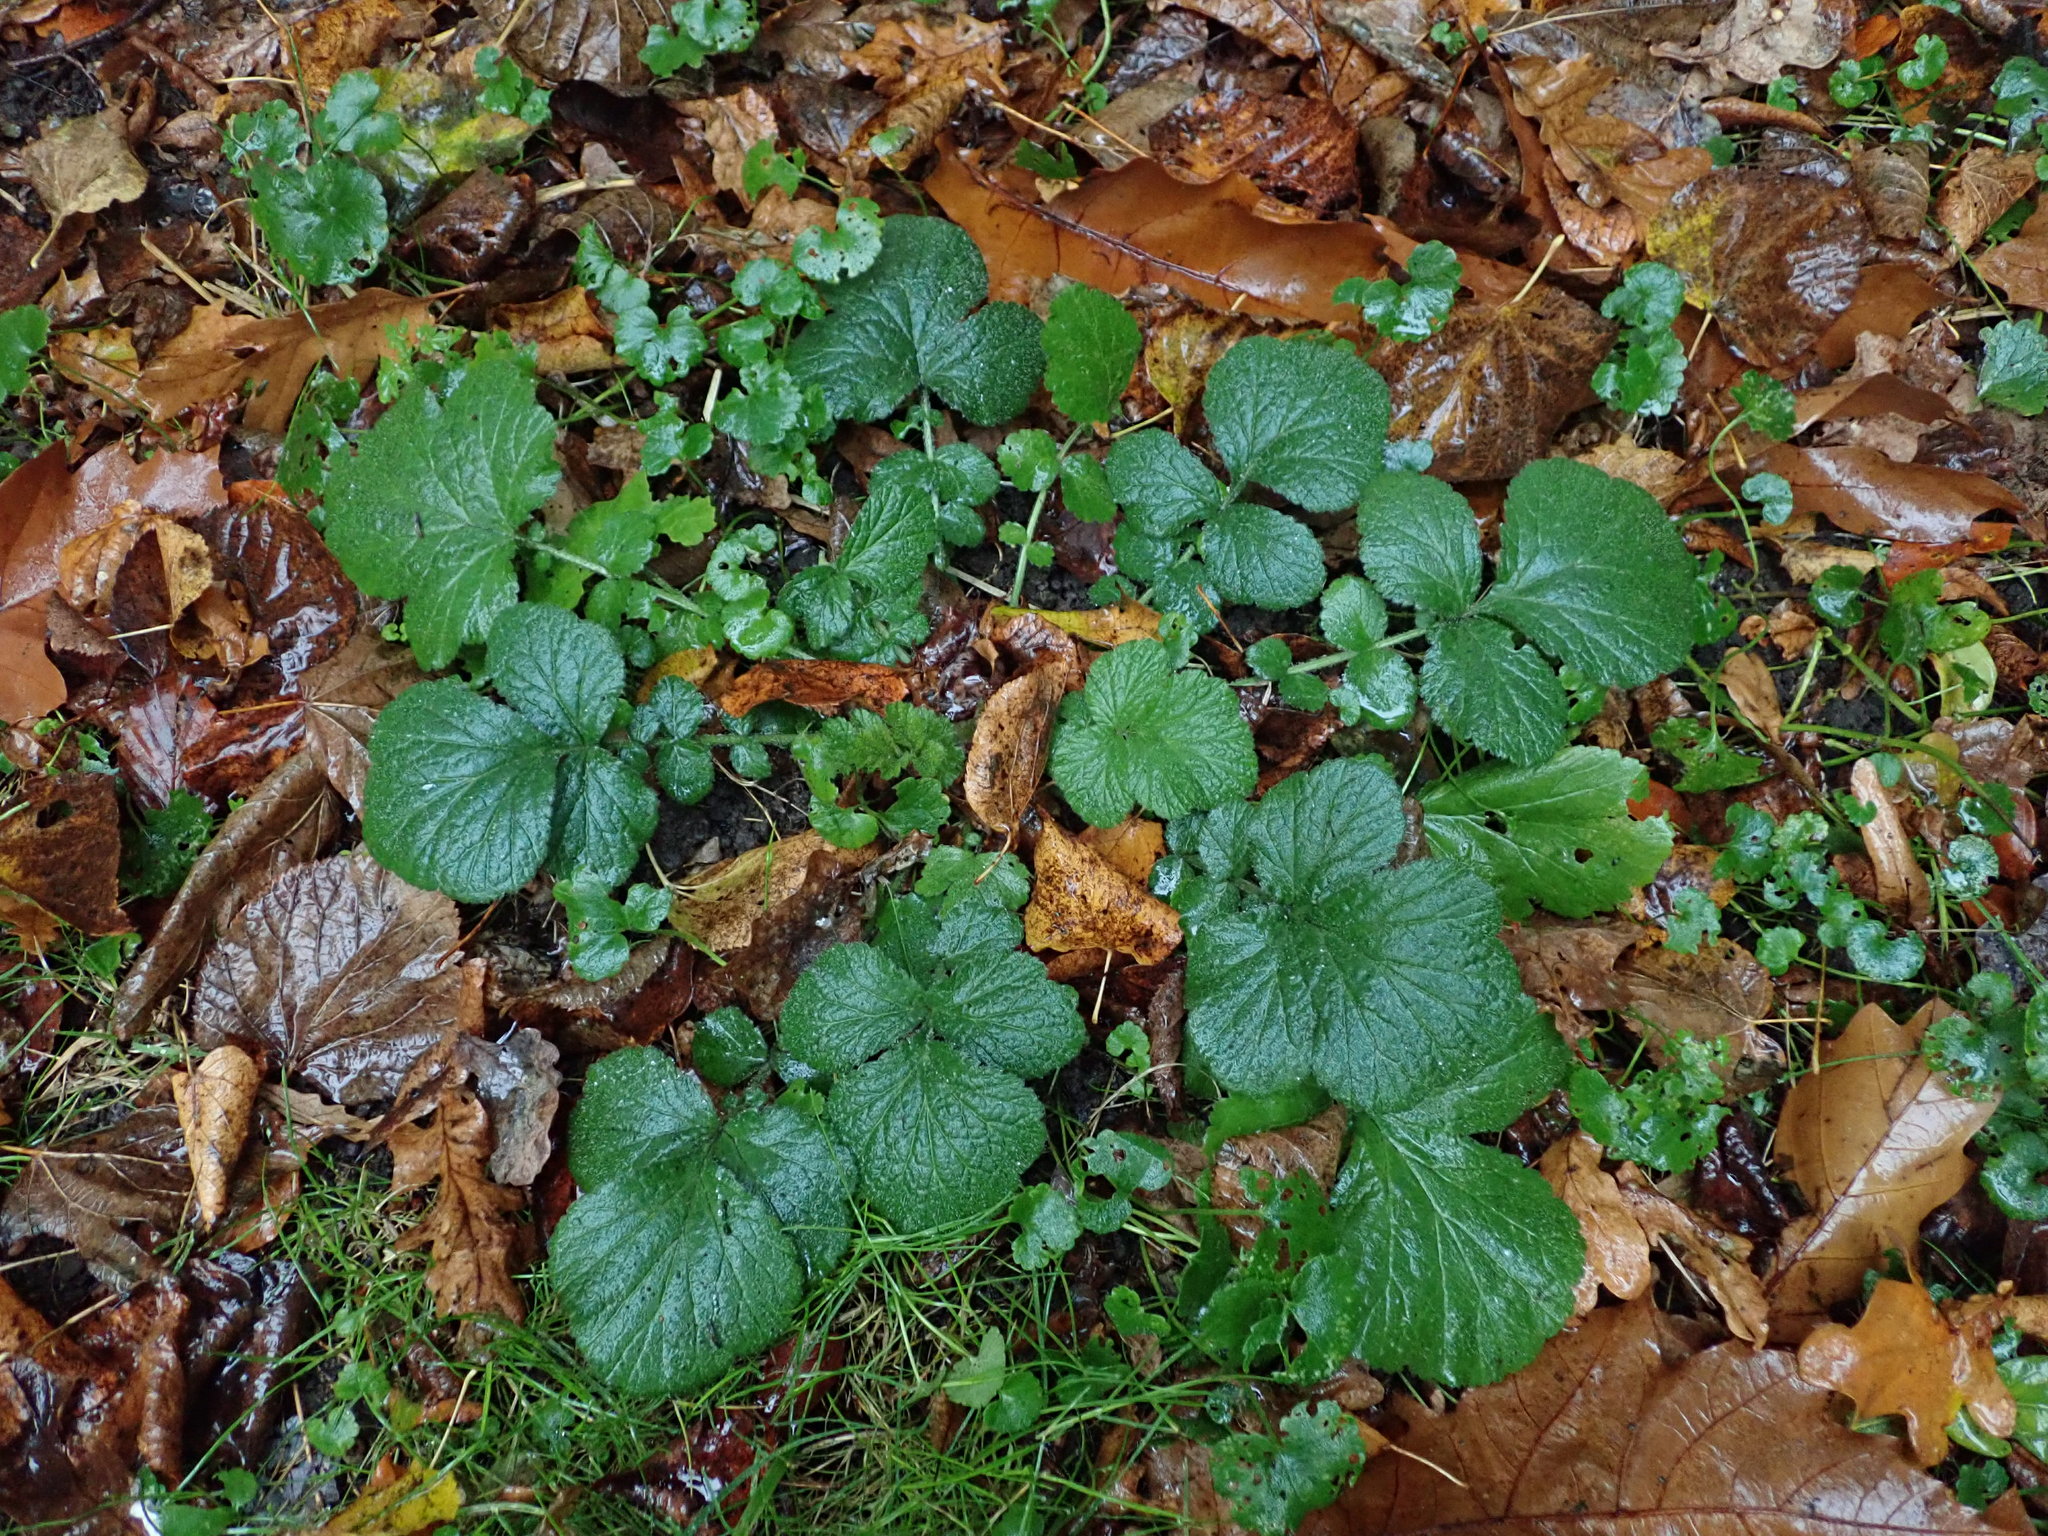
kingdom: Plantae
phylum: Tracheophyta
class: Magnoliopsida
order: Rosales
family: Rosaceae
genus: Geum
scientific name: Geum urbanum
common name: Wood avens
